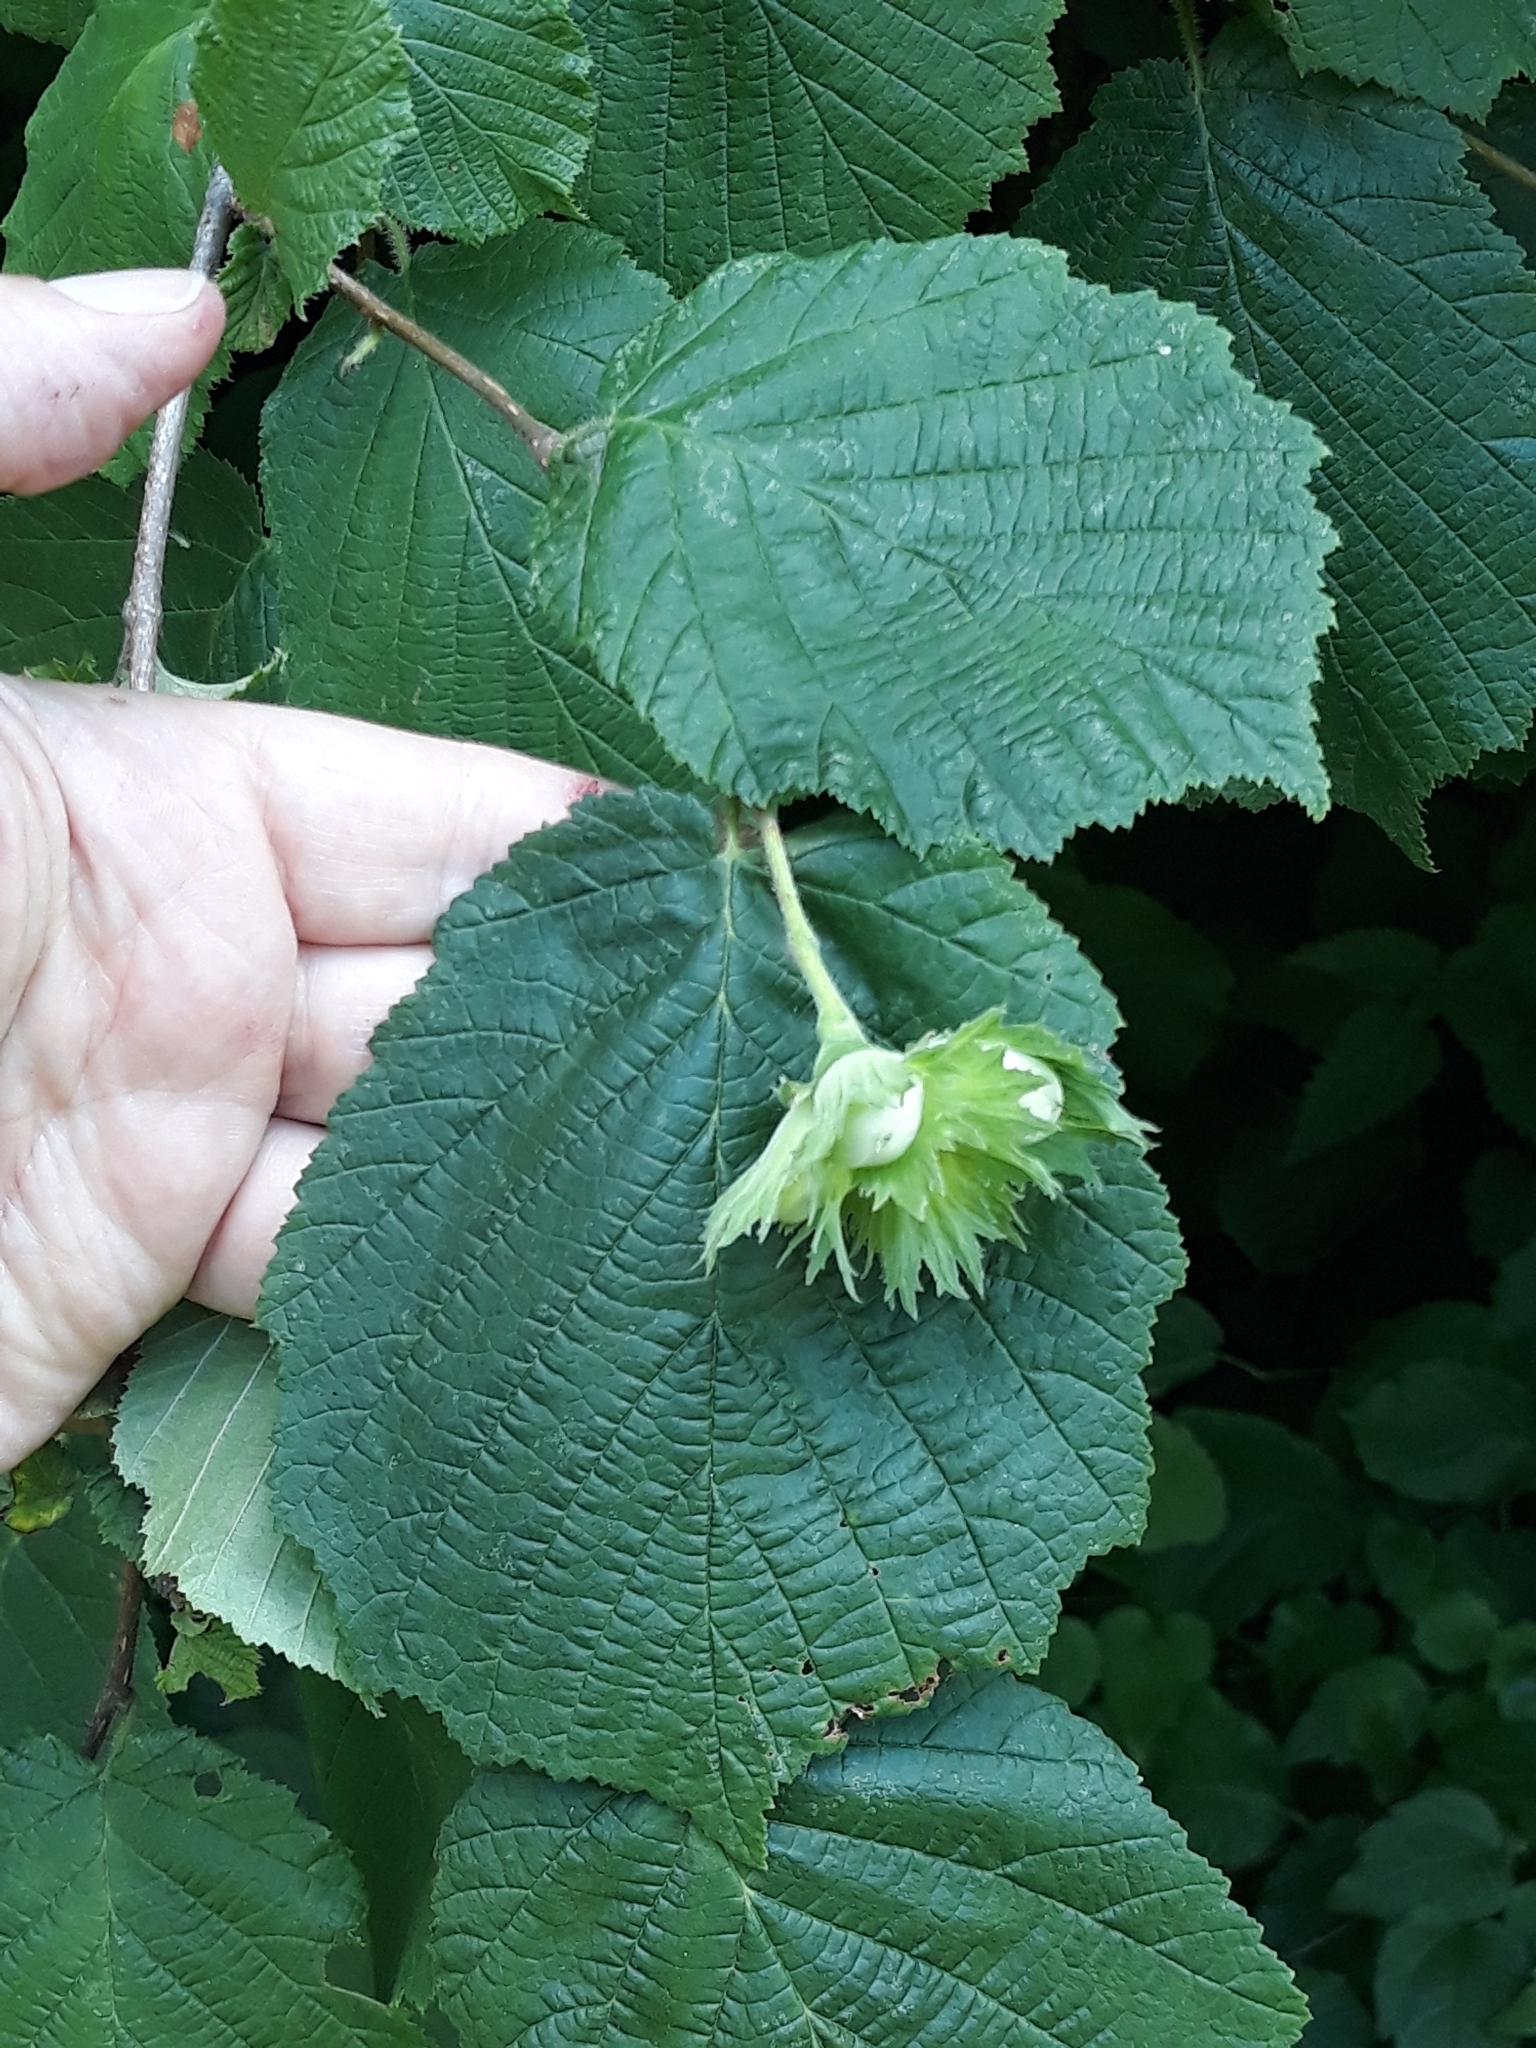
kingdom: Plantae
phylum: Tracheophyta
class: Magnoliopsida
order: Fagales
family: Betulaceae
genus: Corylus
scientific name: Corylus avellana
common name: European hazel
